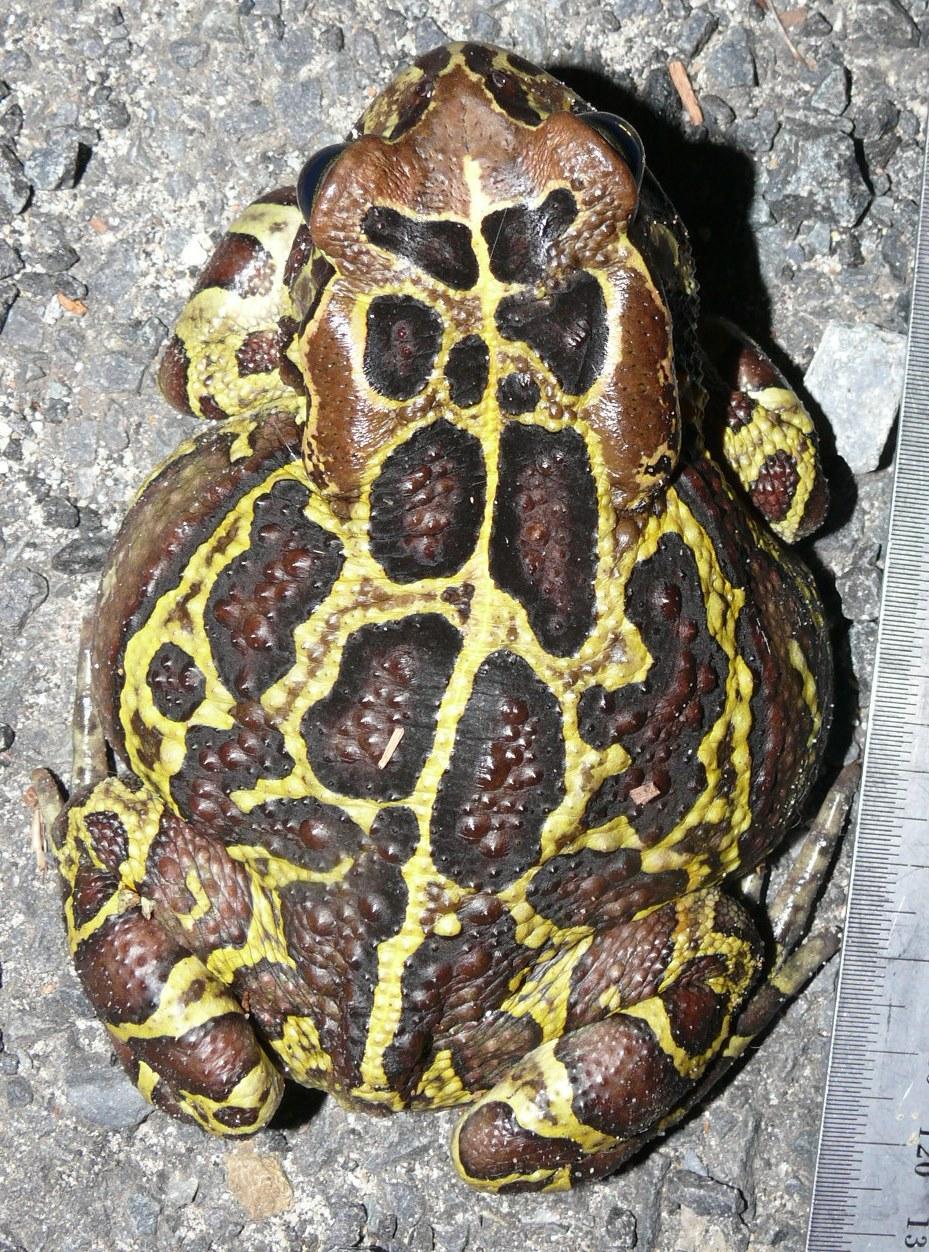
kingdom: Animalia
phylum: Chordata
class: Amphibia
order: Anura
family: Bufonidae
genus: Sclerophrys
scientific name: Sclerophrys pantherina
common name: Panther toad
